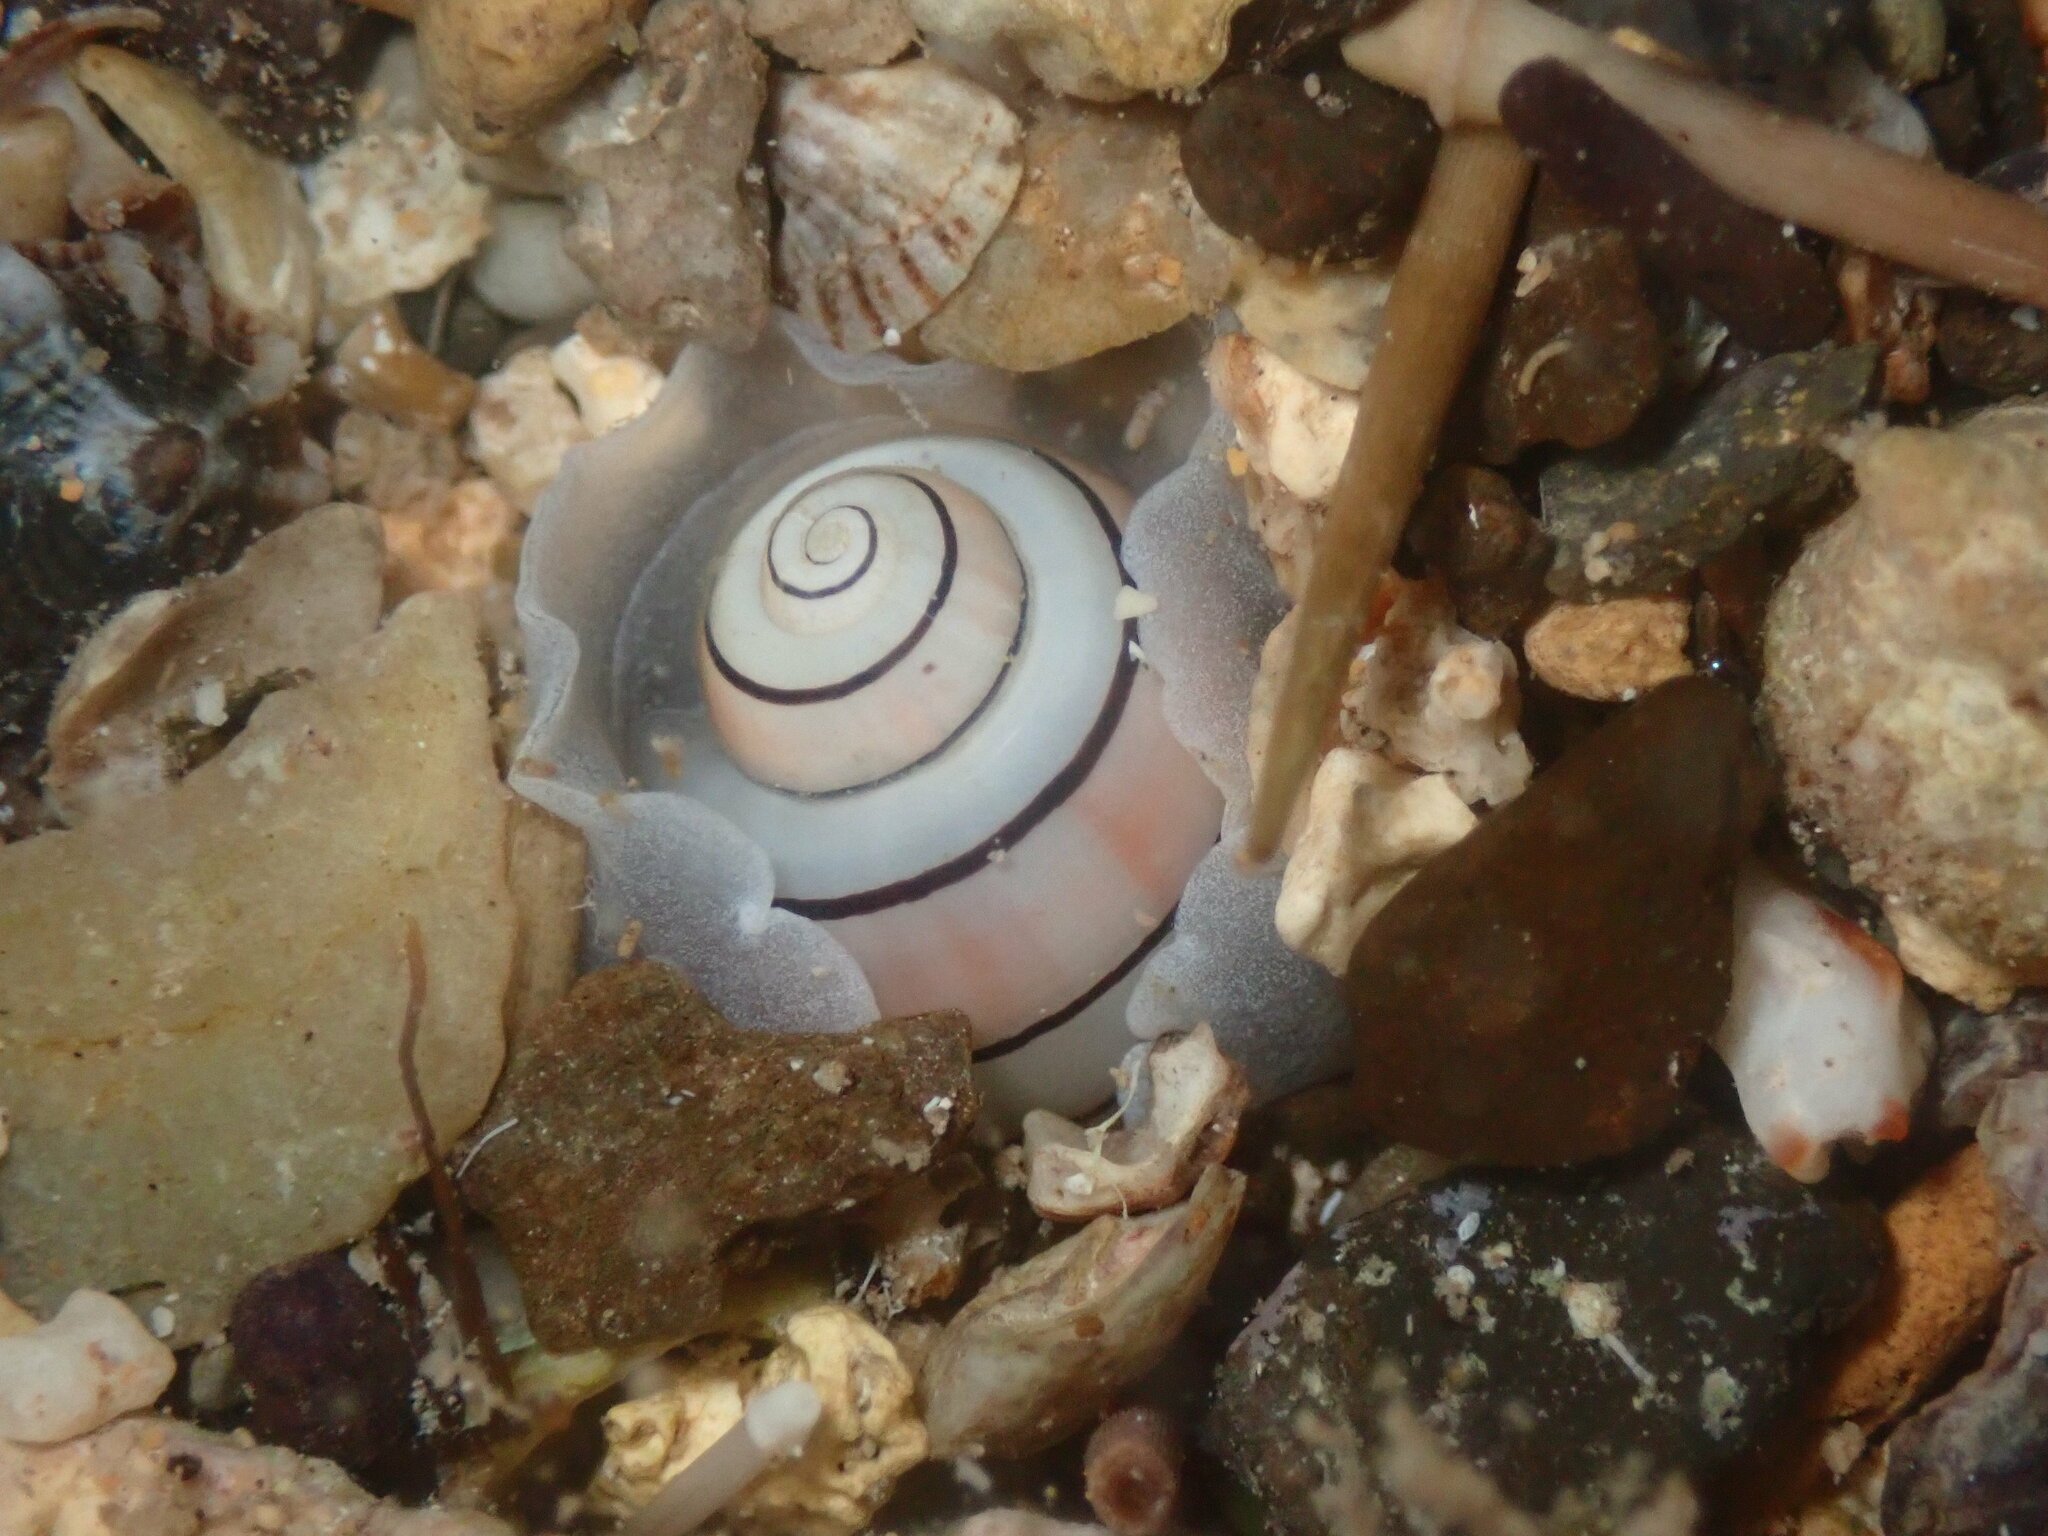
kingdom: Animalia
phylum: Mollusca
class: Gastropoda
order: Cephalaspidea
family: Aplustridae
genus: Aplustrum
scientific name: Aplustrum amplustre
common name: Royal paperbubble
